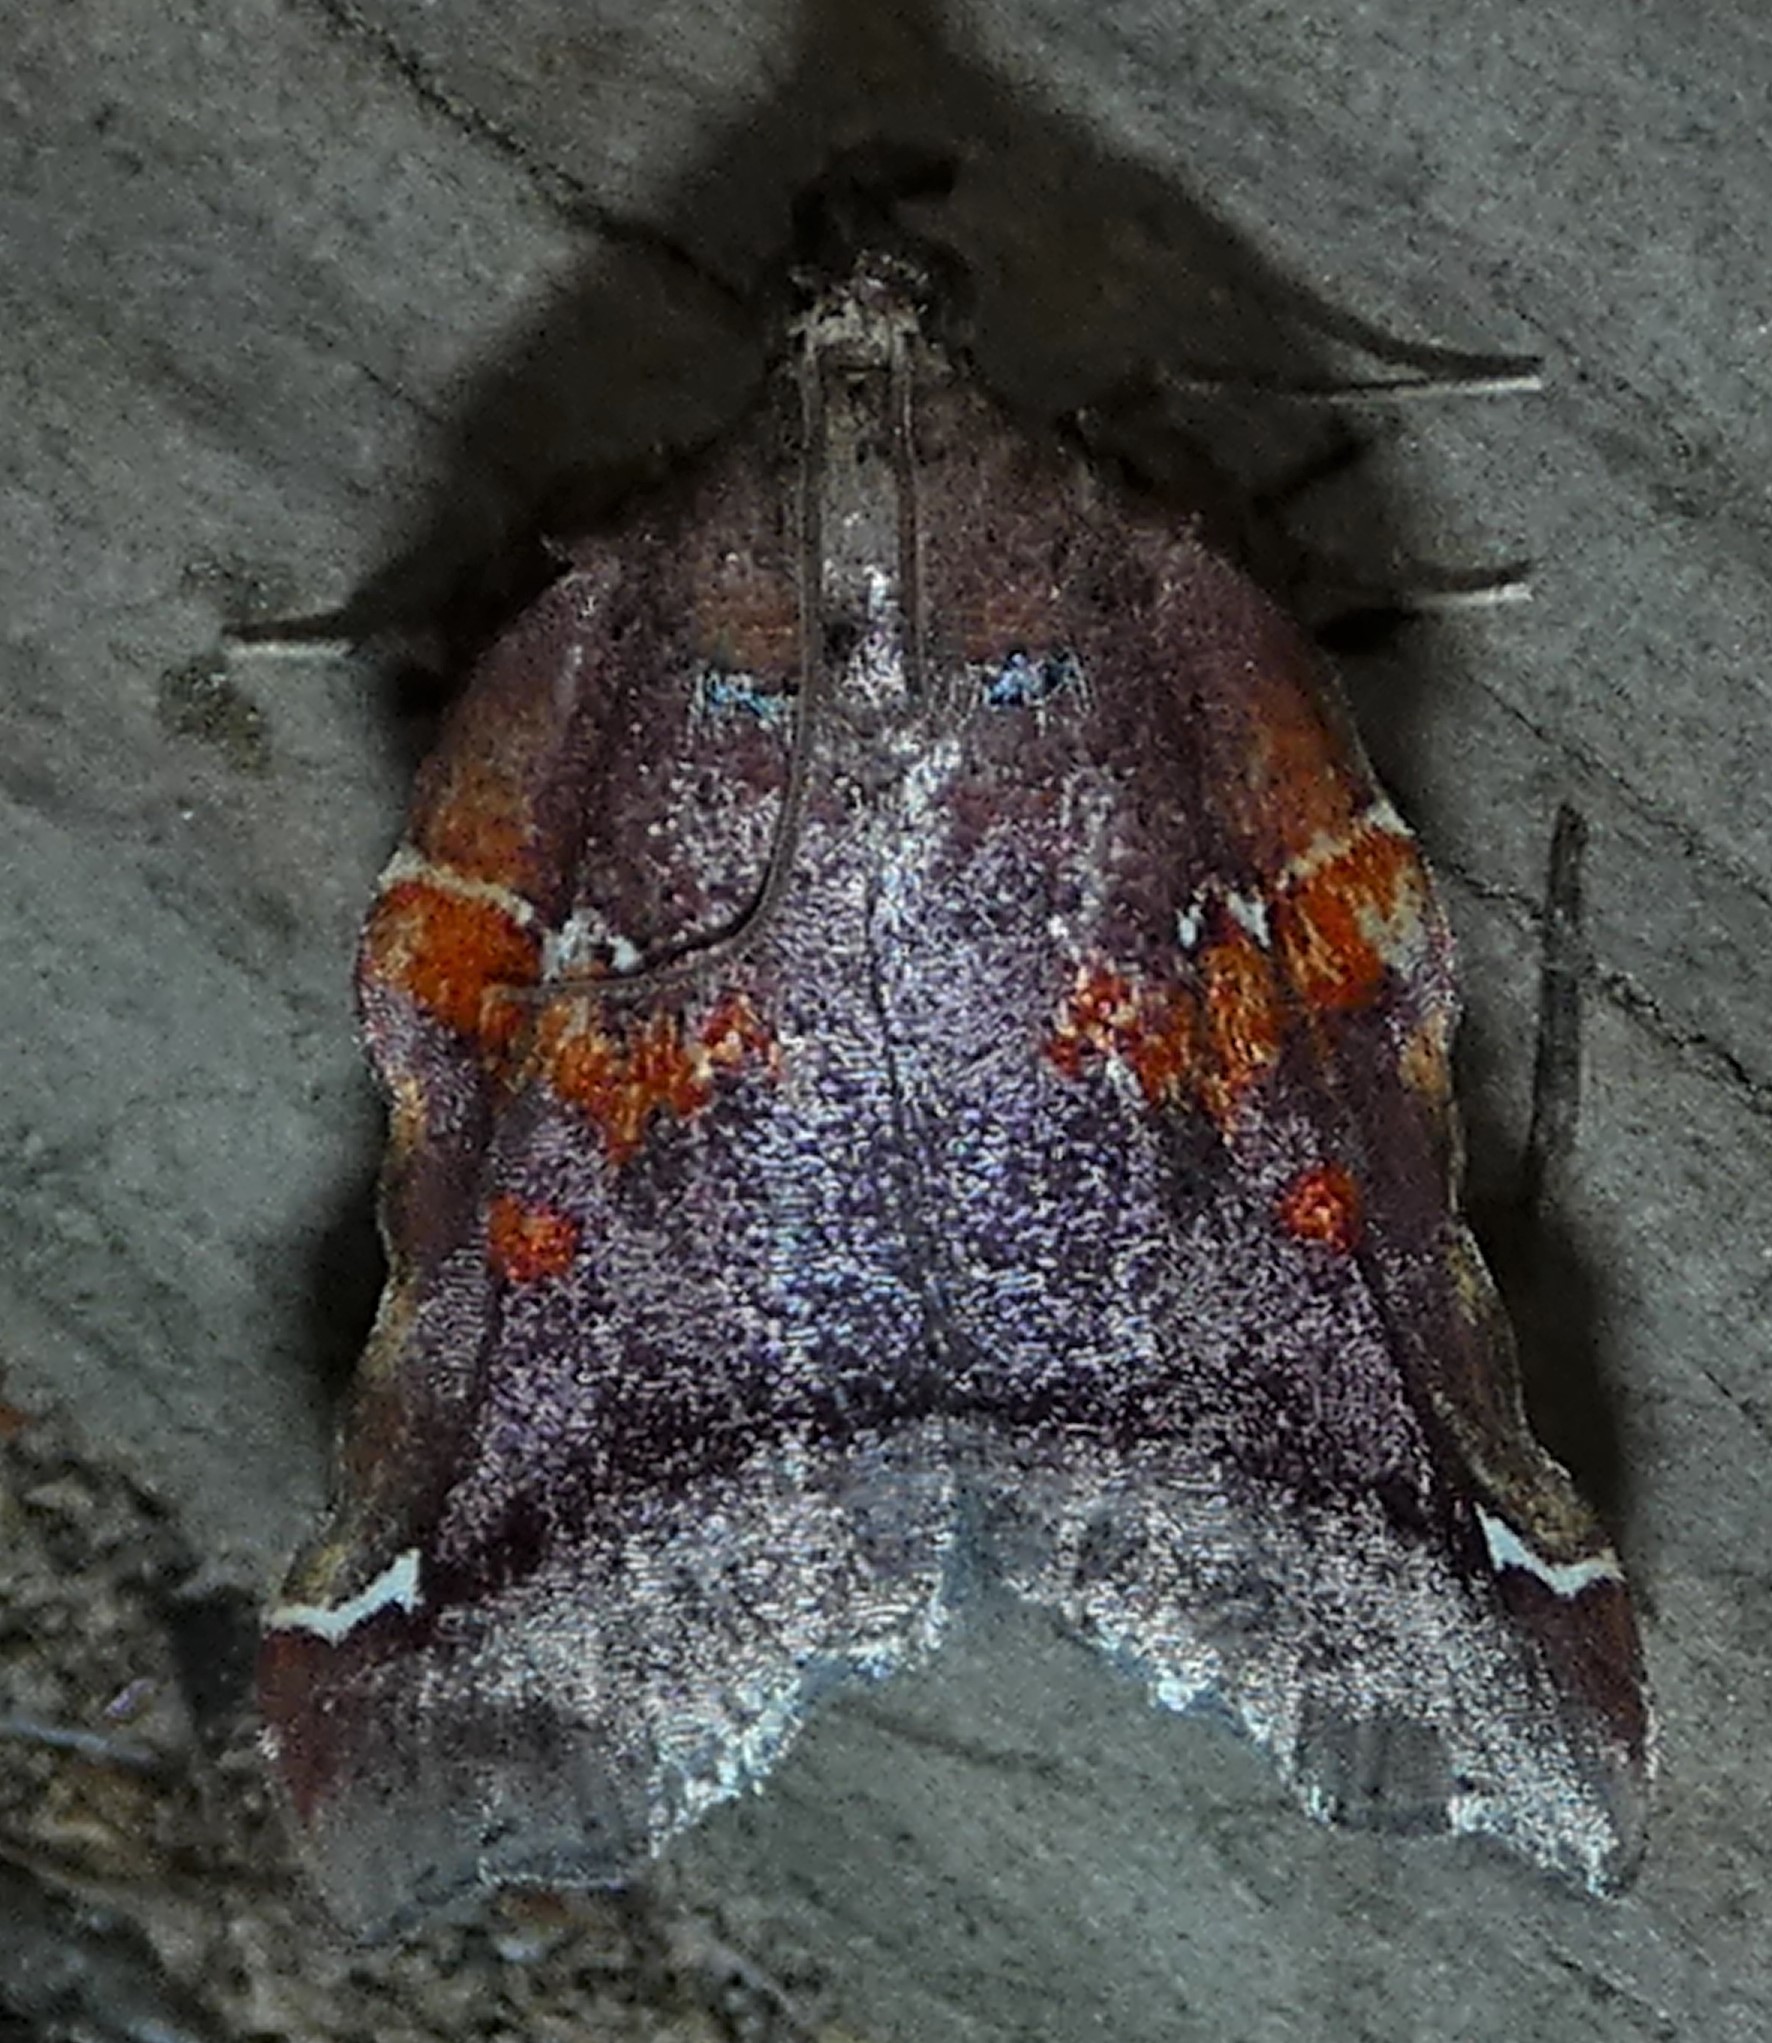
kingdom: Animalia
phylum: Arthropoda
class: Insecta
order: Lepidoptera
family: Pyralidae
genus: Clydonopteron
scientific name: Clydonopteron sacculana
